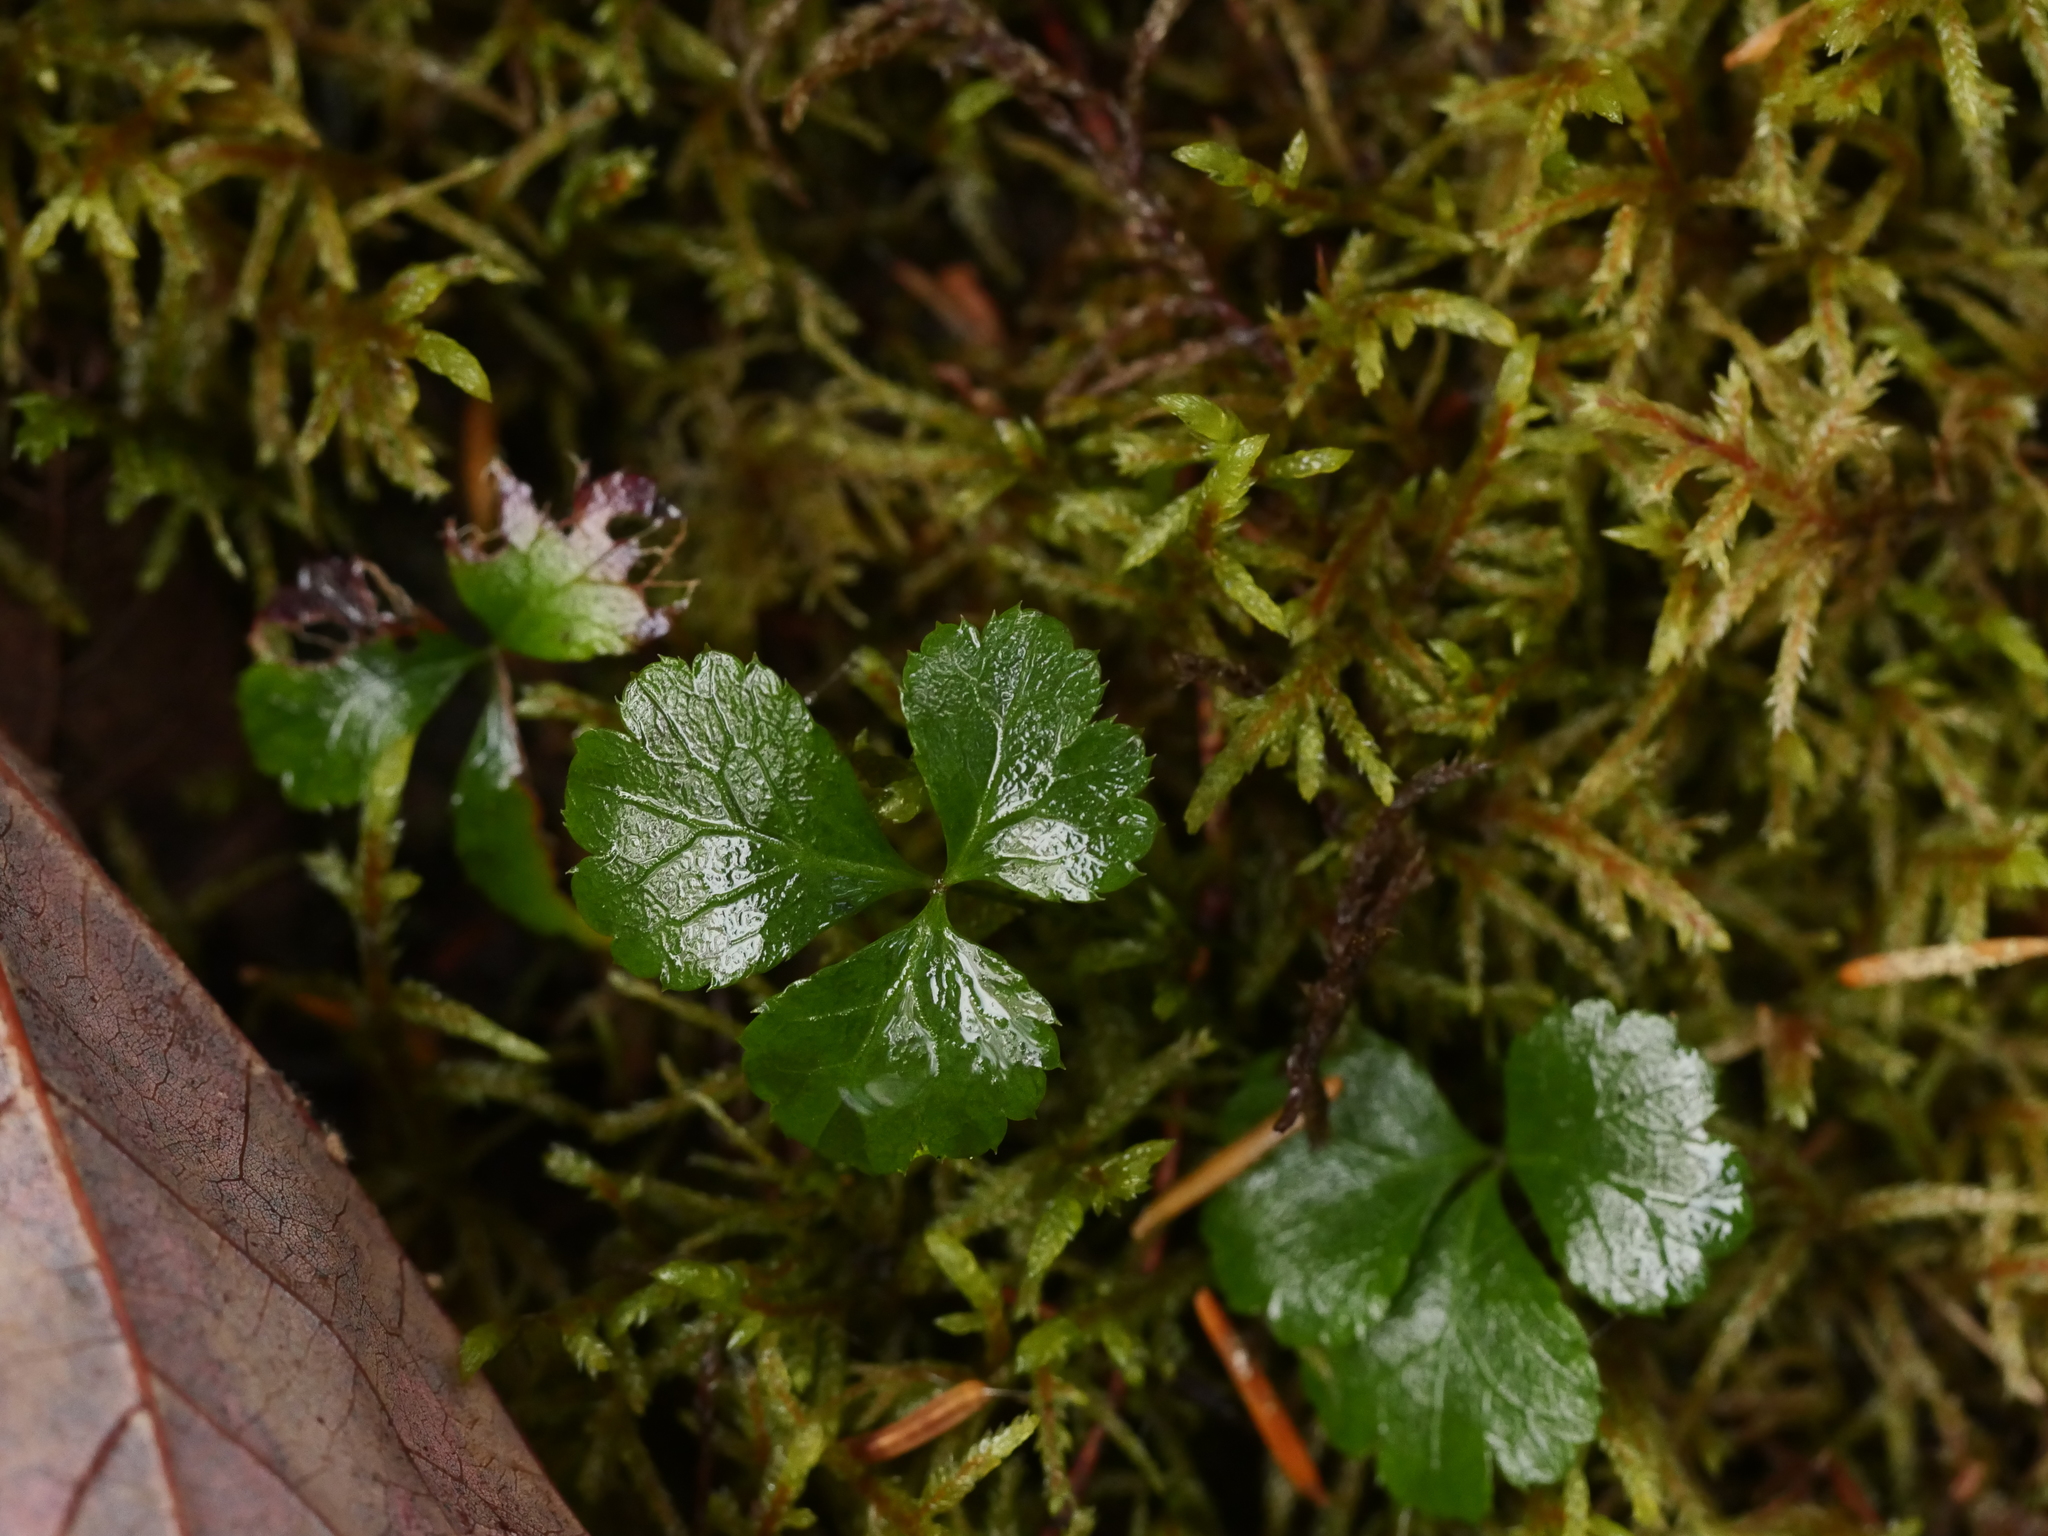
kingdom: Plantae
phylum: Tracheophyta
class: Magnoliopsida
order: Ranunculales
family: Ranunculaceae
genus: Coptis
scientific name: Coptis trifolia
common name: Canker-root
